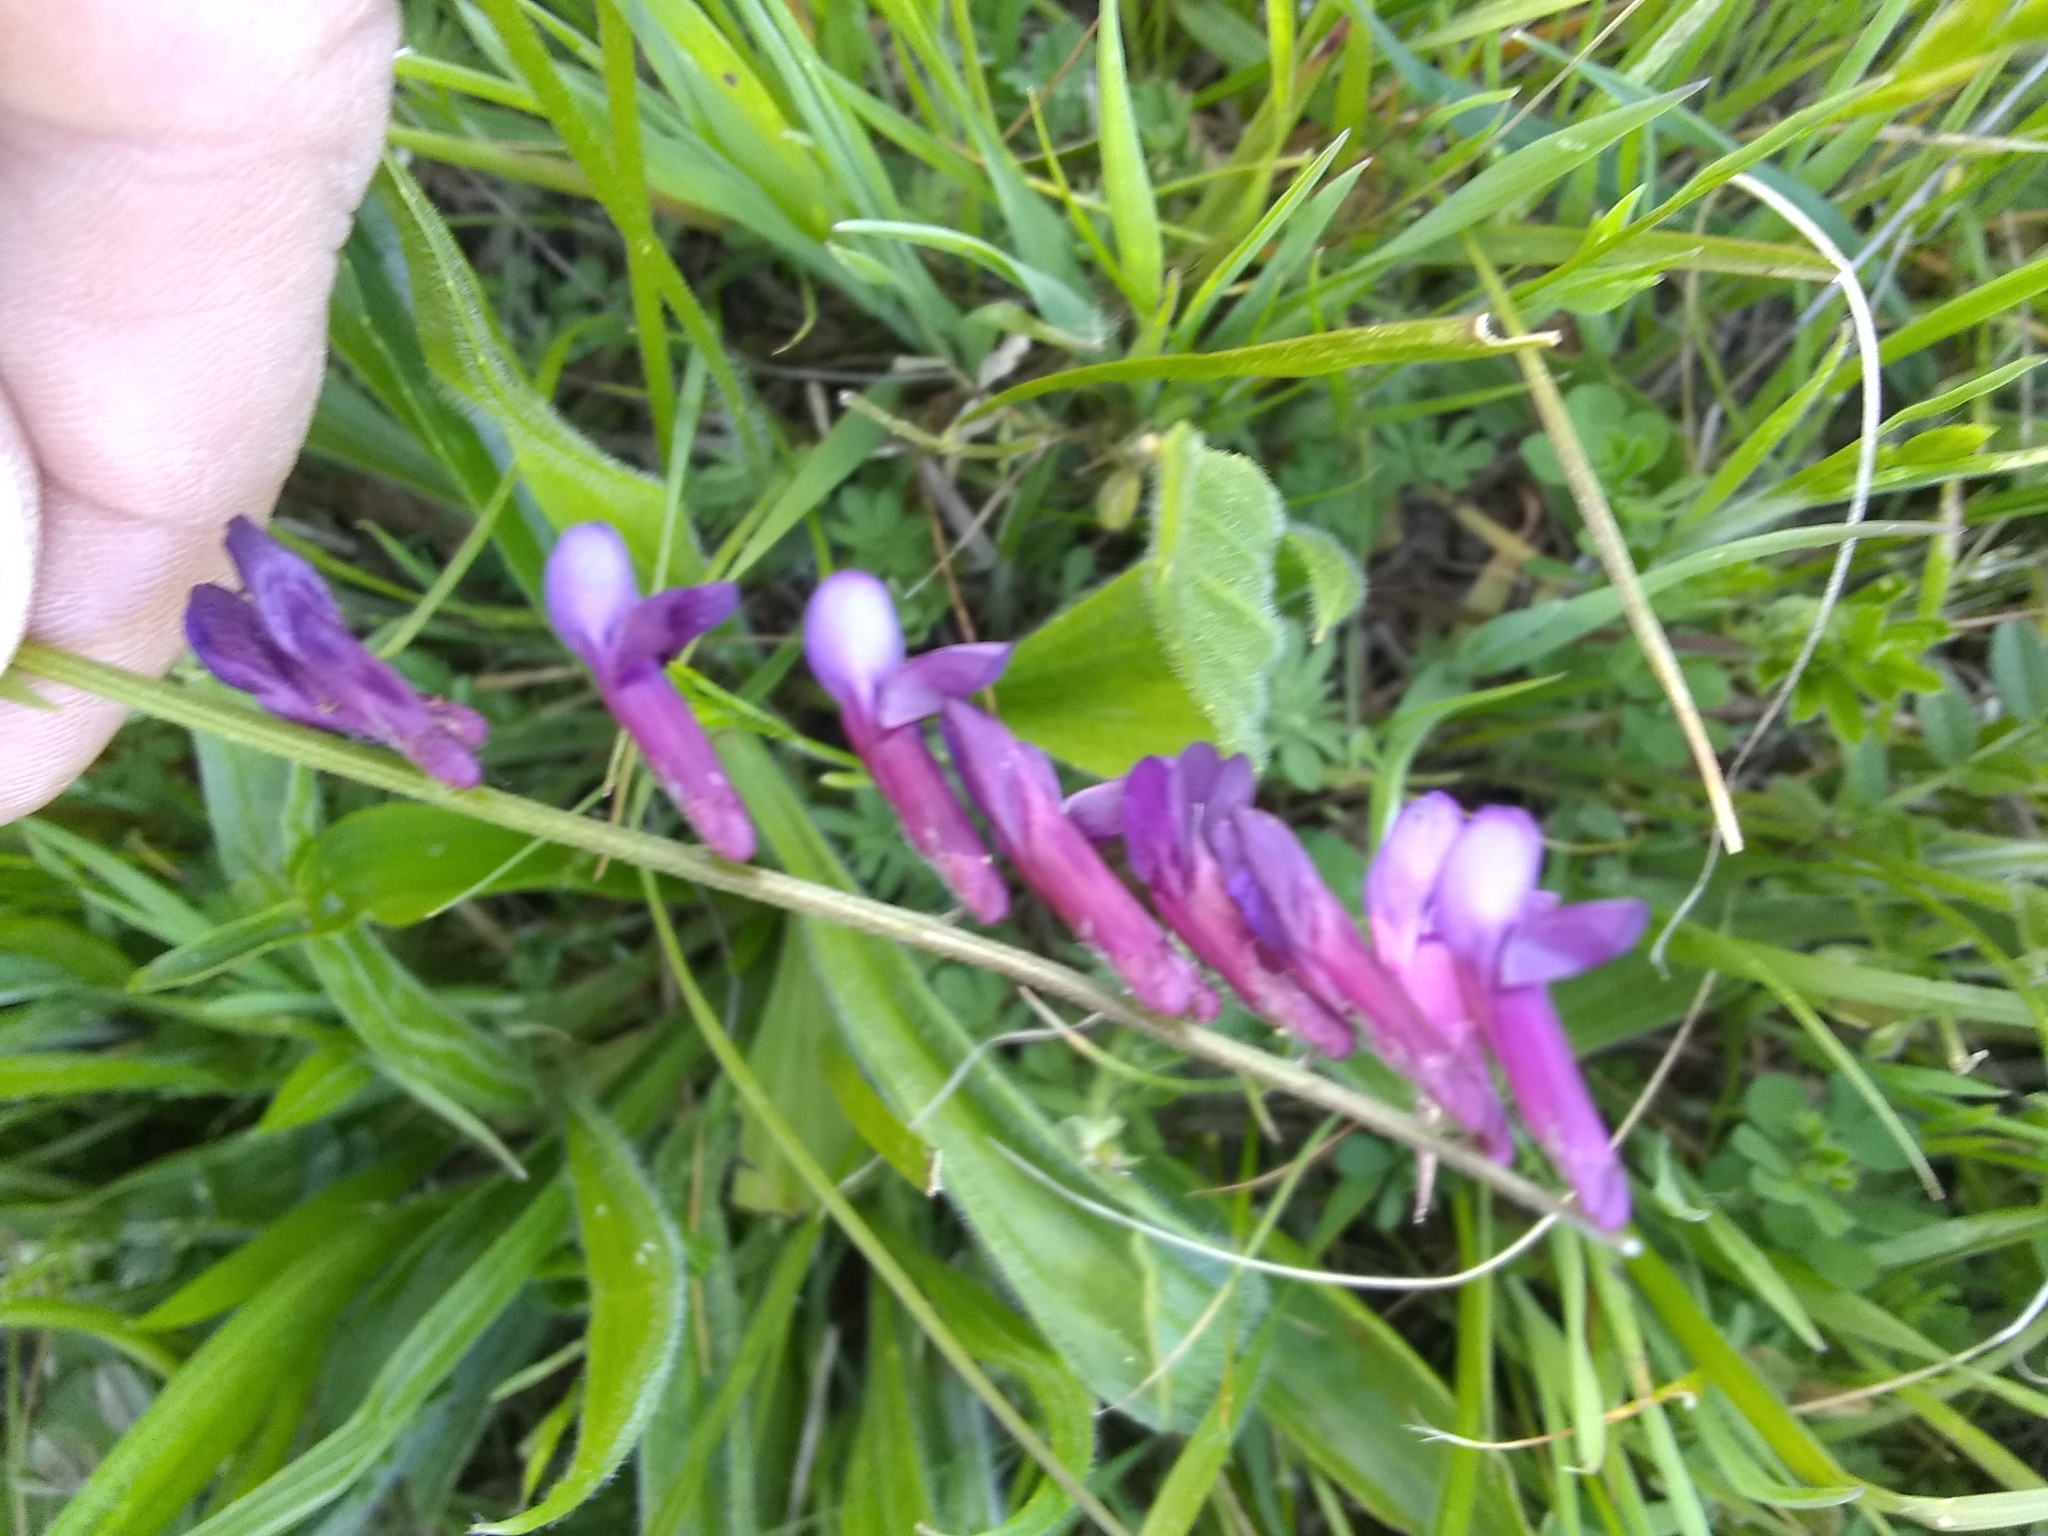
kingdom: Plantae
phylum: Tracheophyta
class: Magnoliopsida
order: Fabales
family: Fabaceae
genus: Vicia
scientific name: Vicia villosa
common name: Fodder vetch
